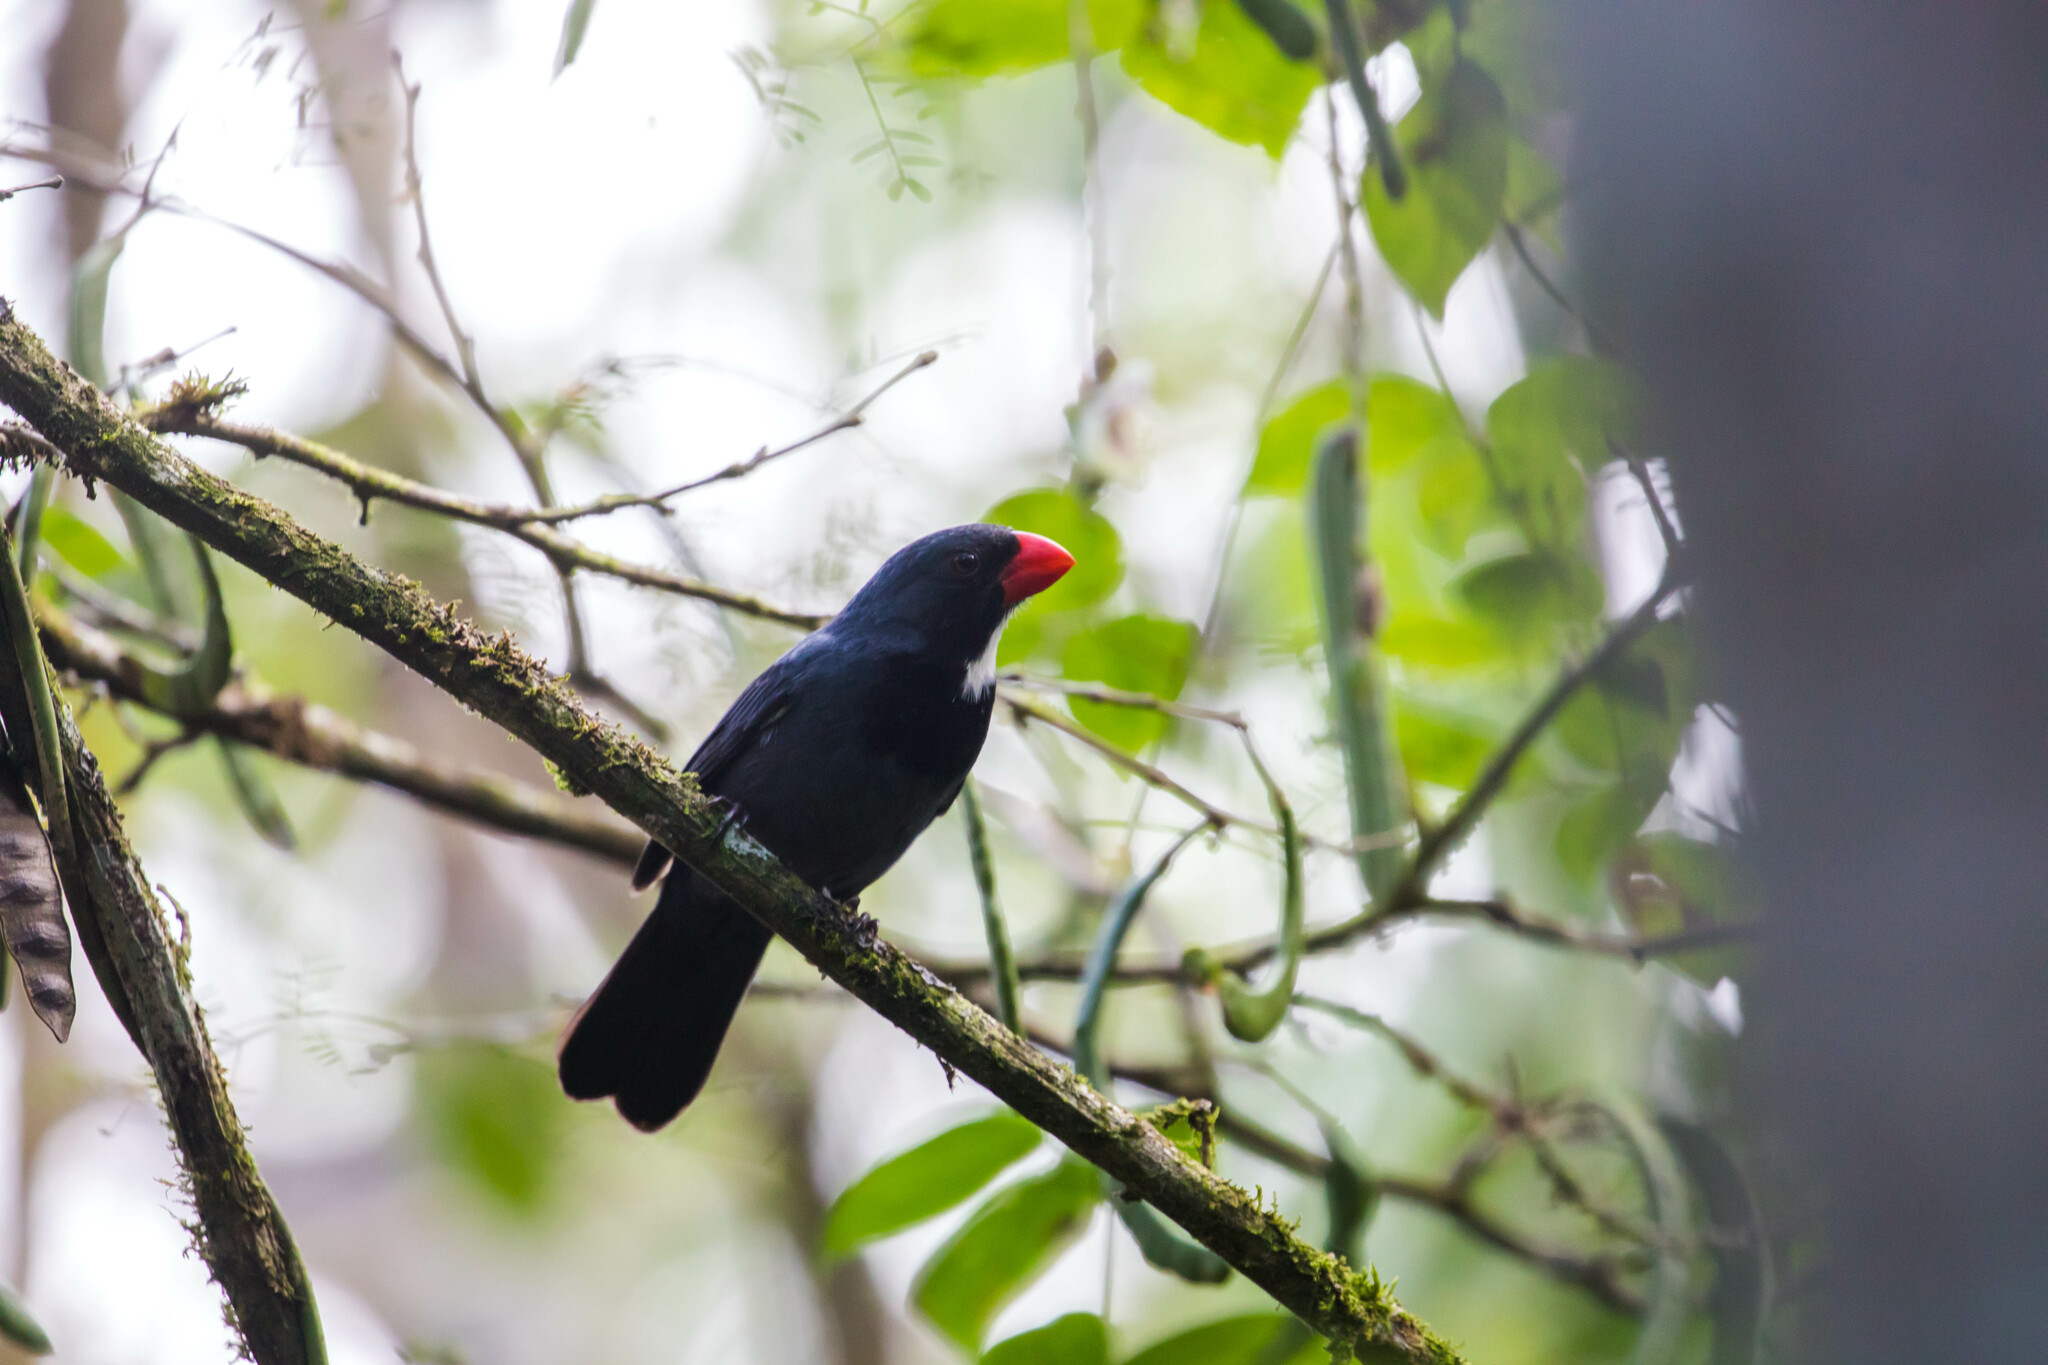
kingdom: Animalia
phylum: Chordata
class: Aves
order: Passeriformes
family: Thraupidae
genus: Saltator
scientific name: Saltator grossus
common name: Slate-colored grosbeak
